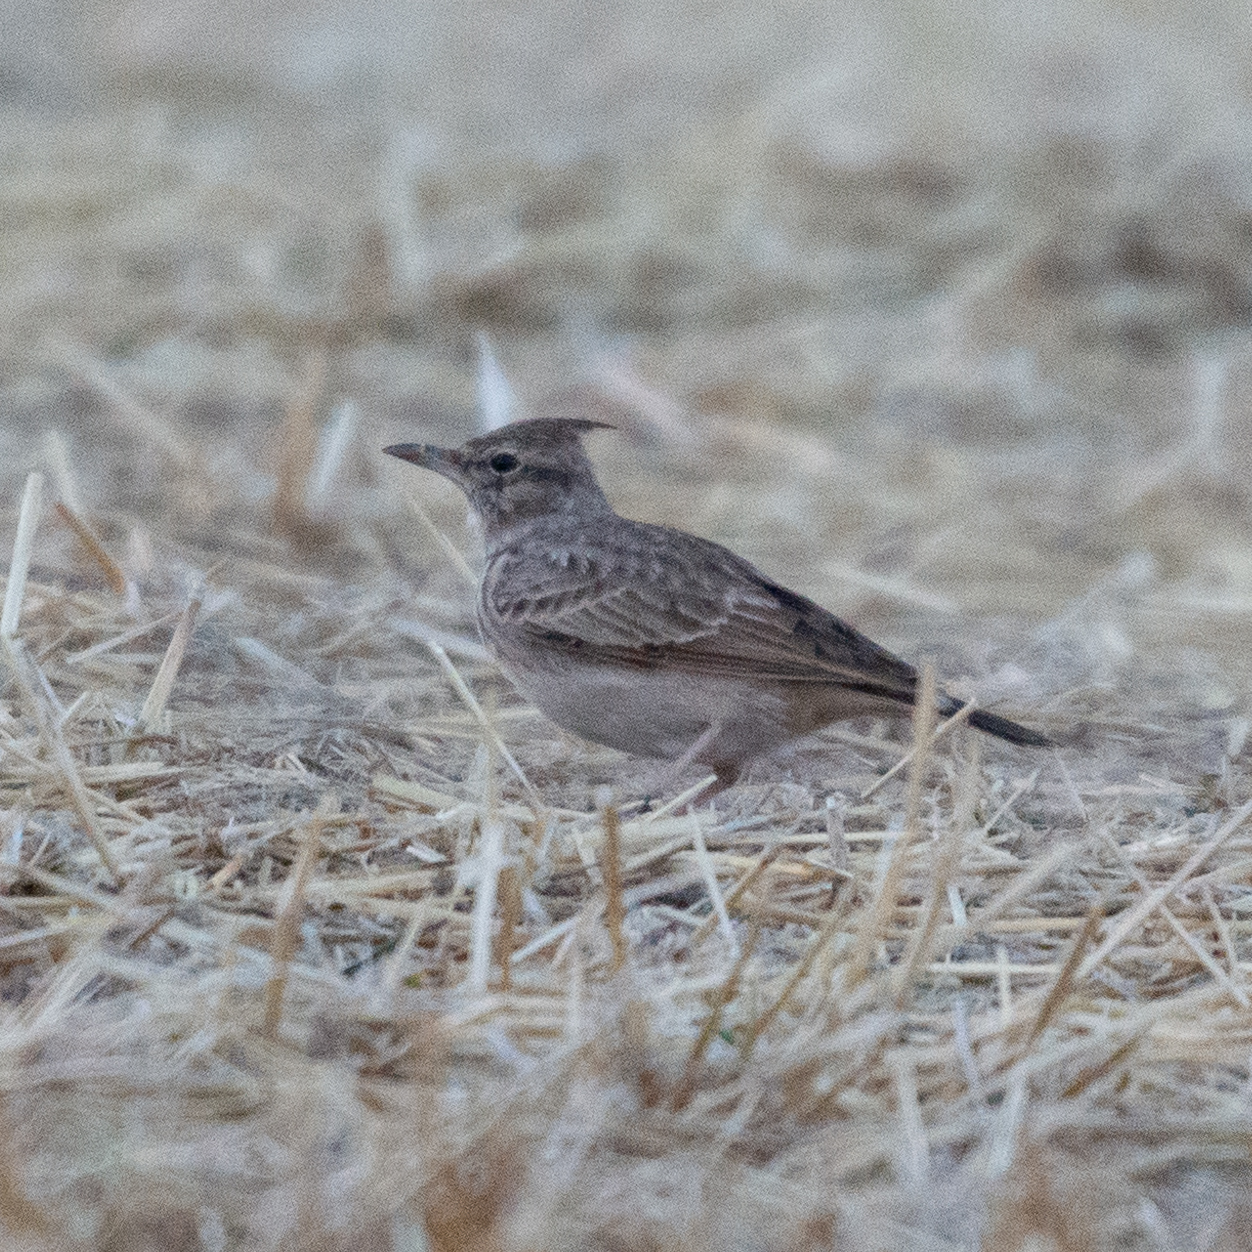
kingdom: Animalia
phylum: Chordata
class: Aves
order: Passeriformes
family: Alaudidae
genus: Galerida
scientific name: Galerida cristata
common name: Crested lark
